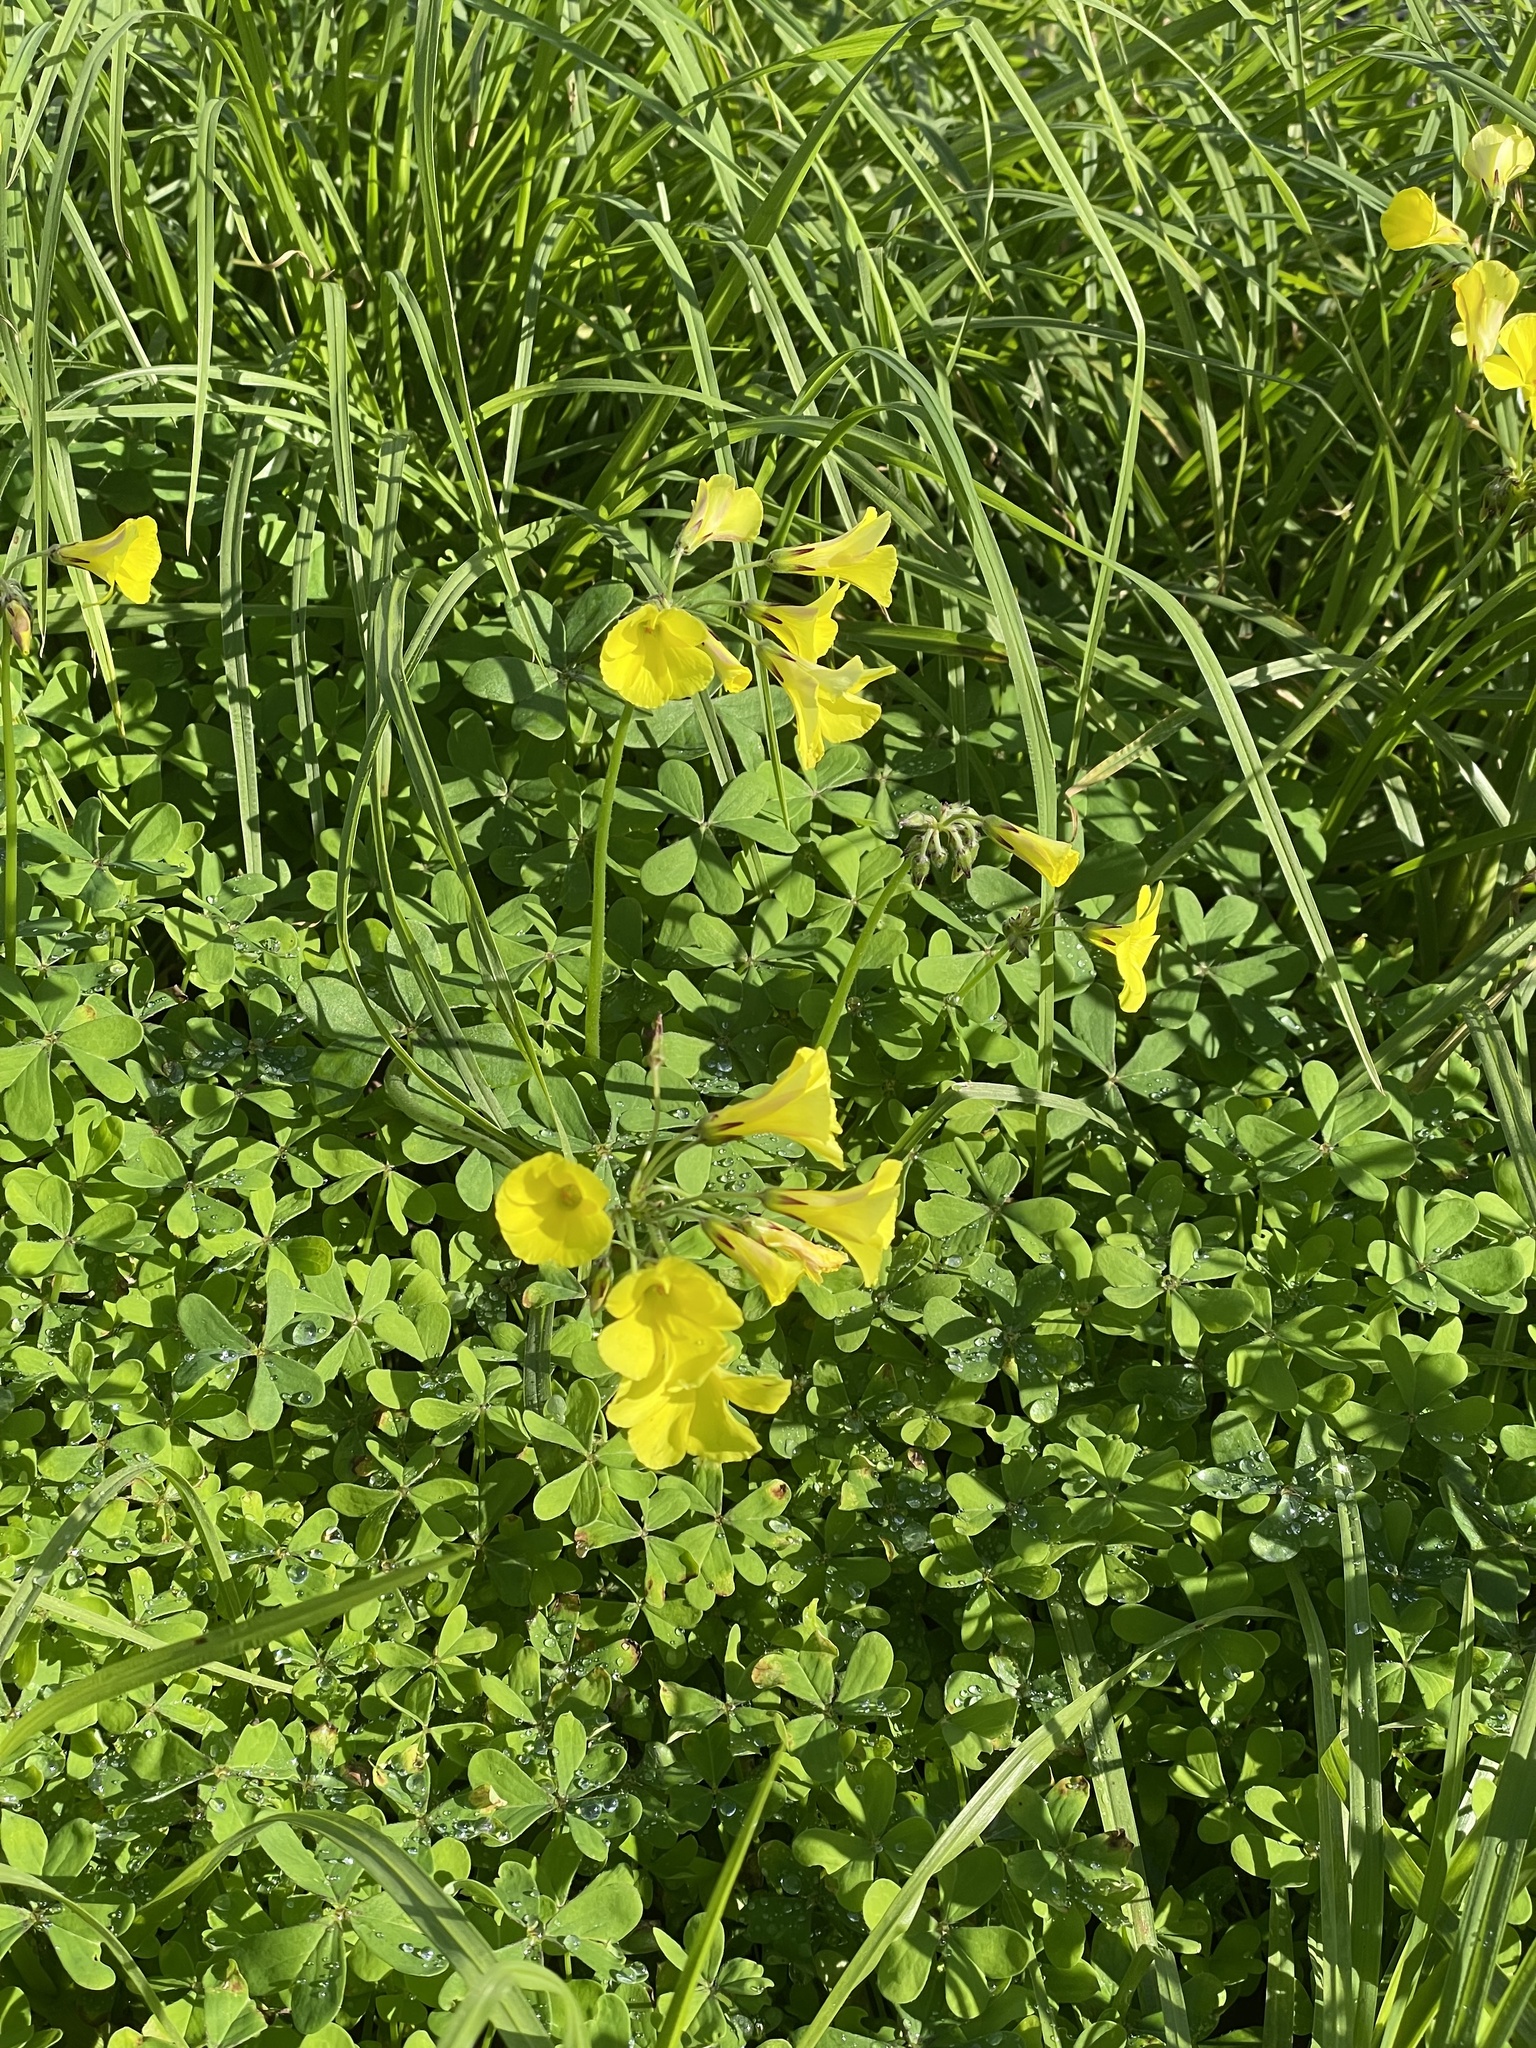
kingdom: Plantae
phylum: Tracheophyta
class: Magnoliopsida
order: Oxalidales
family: Oxalidaceae
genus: Oxalis
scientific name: Oxalis pes-caprae
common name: Bermuda-buttercup
